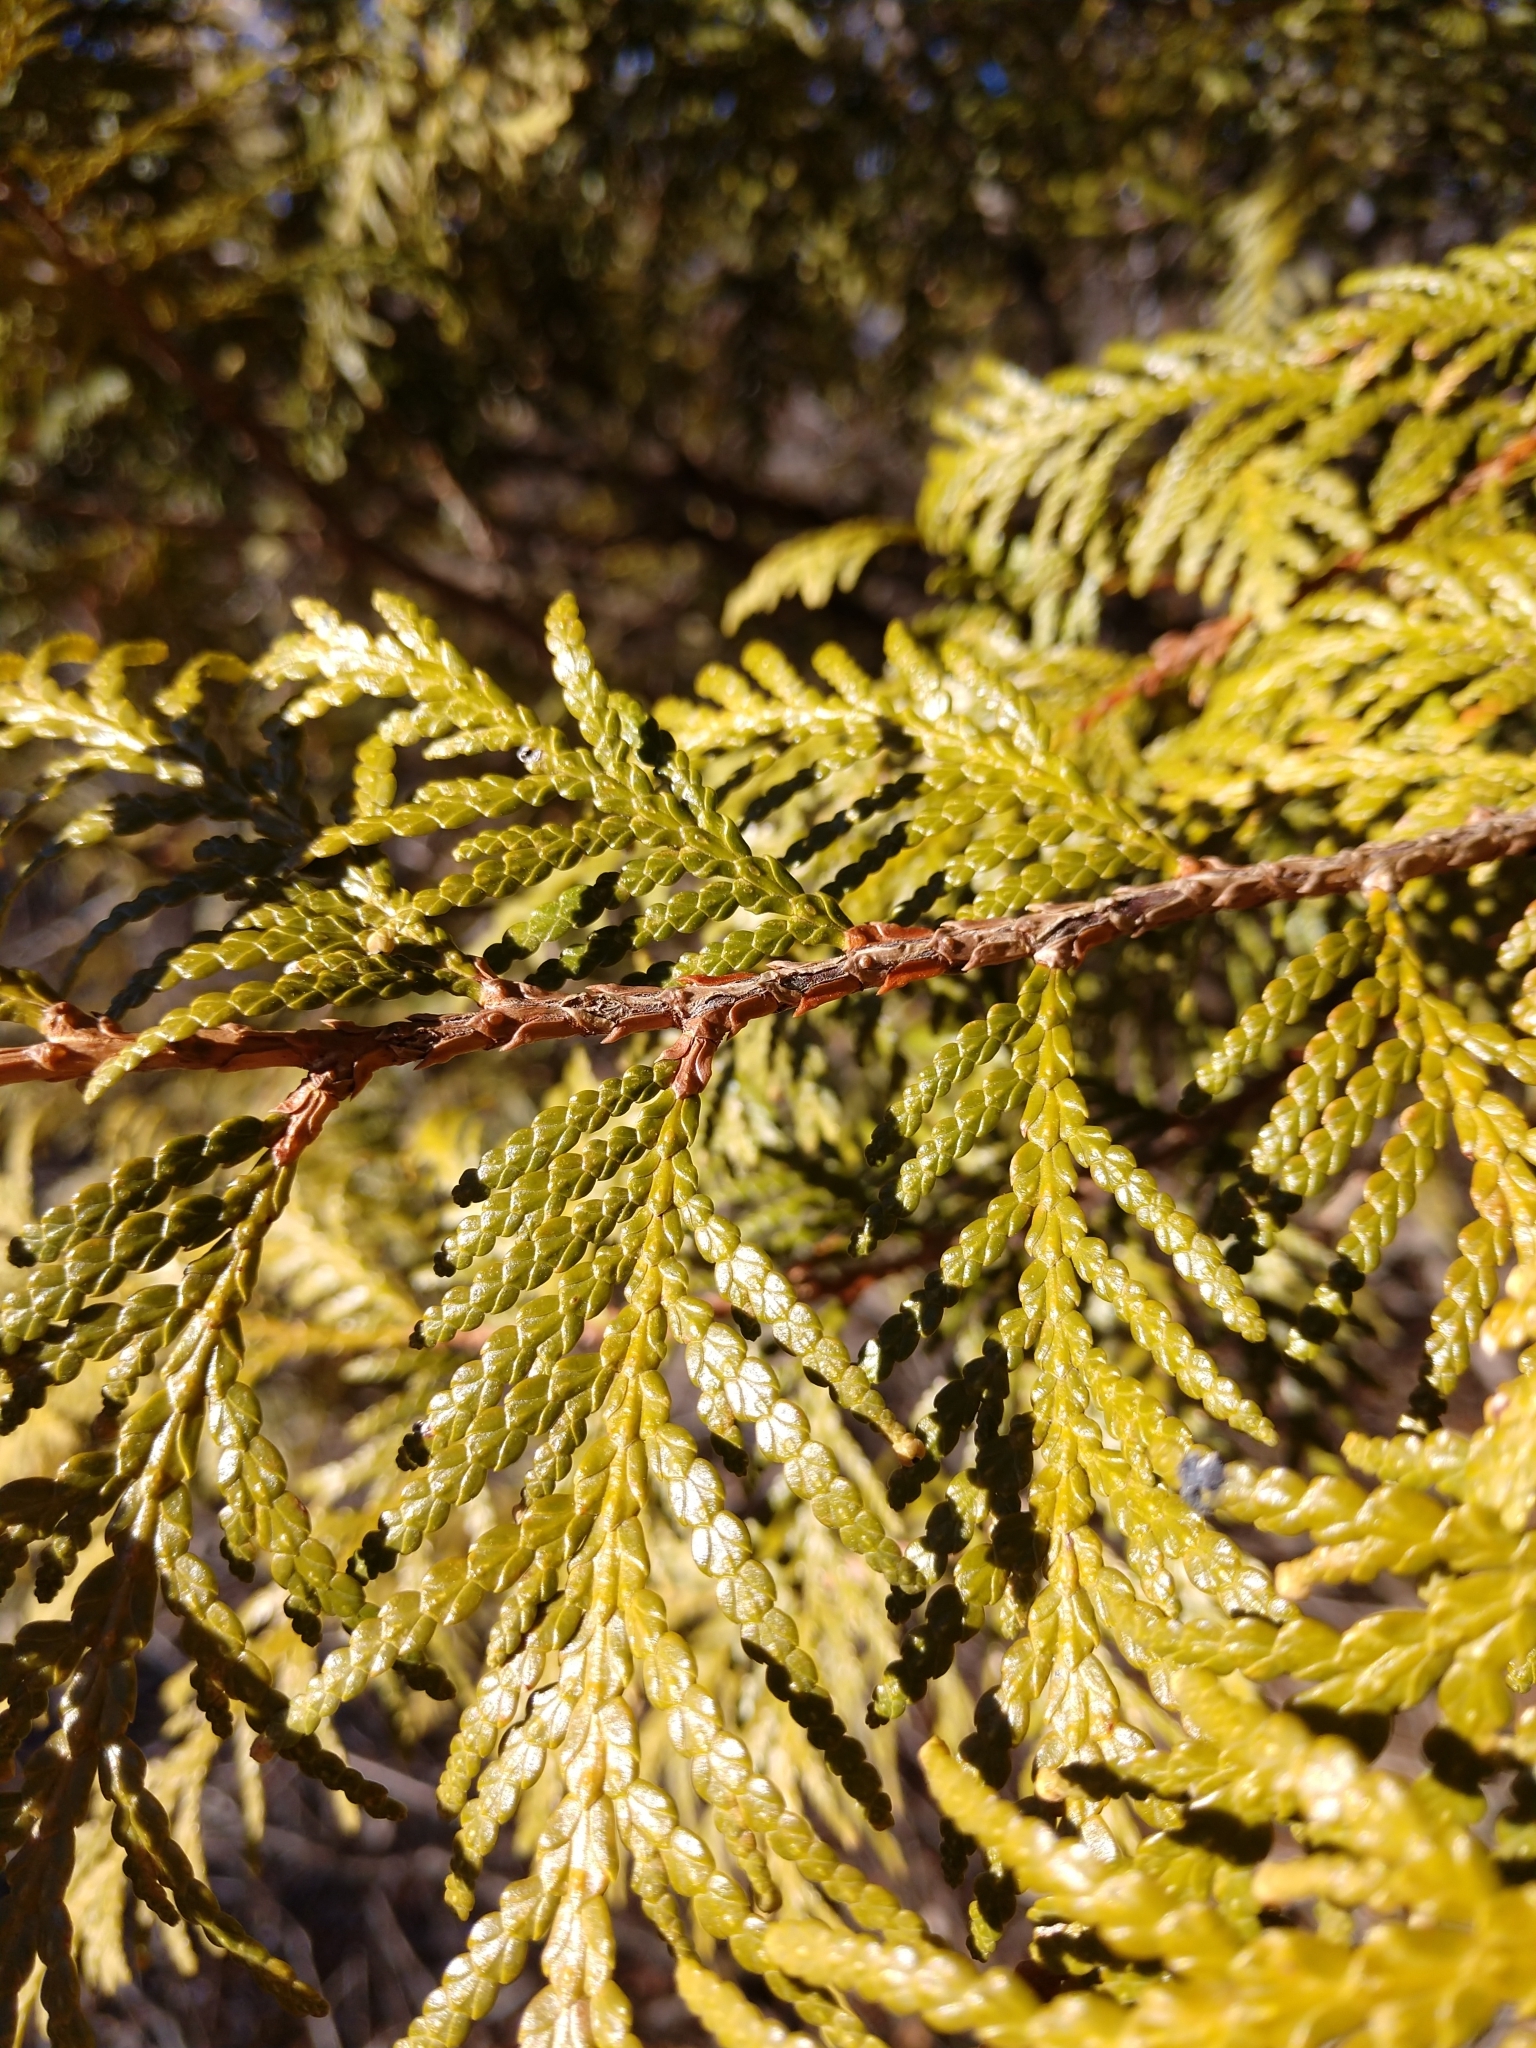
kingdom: Plantae
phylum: Tracheophyta
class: Pinopsida
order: Pinales
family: Cupressaceae
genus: Thuja
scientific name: Thuja occidentalis
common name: Northern white-cedar
